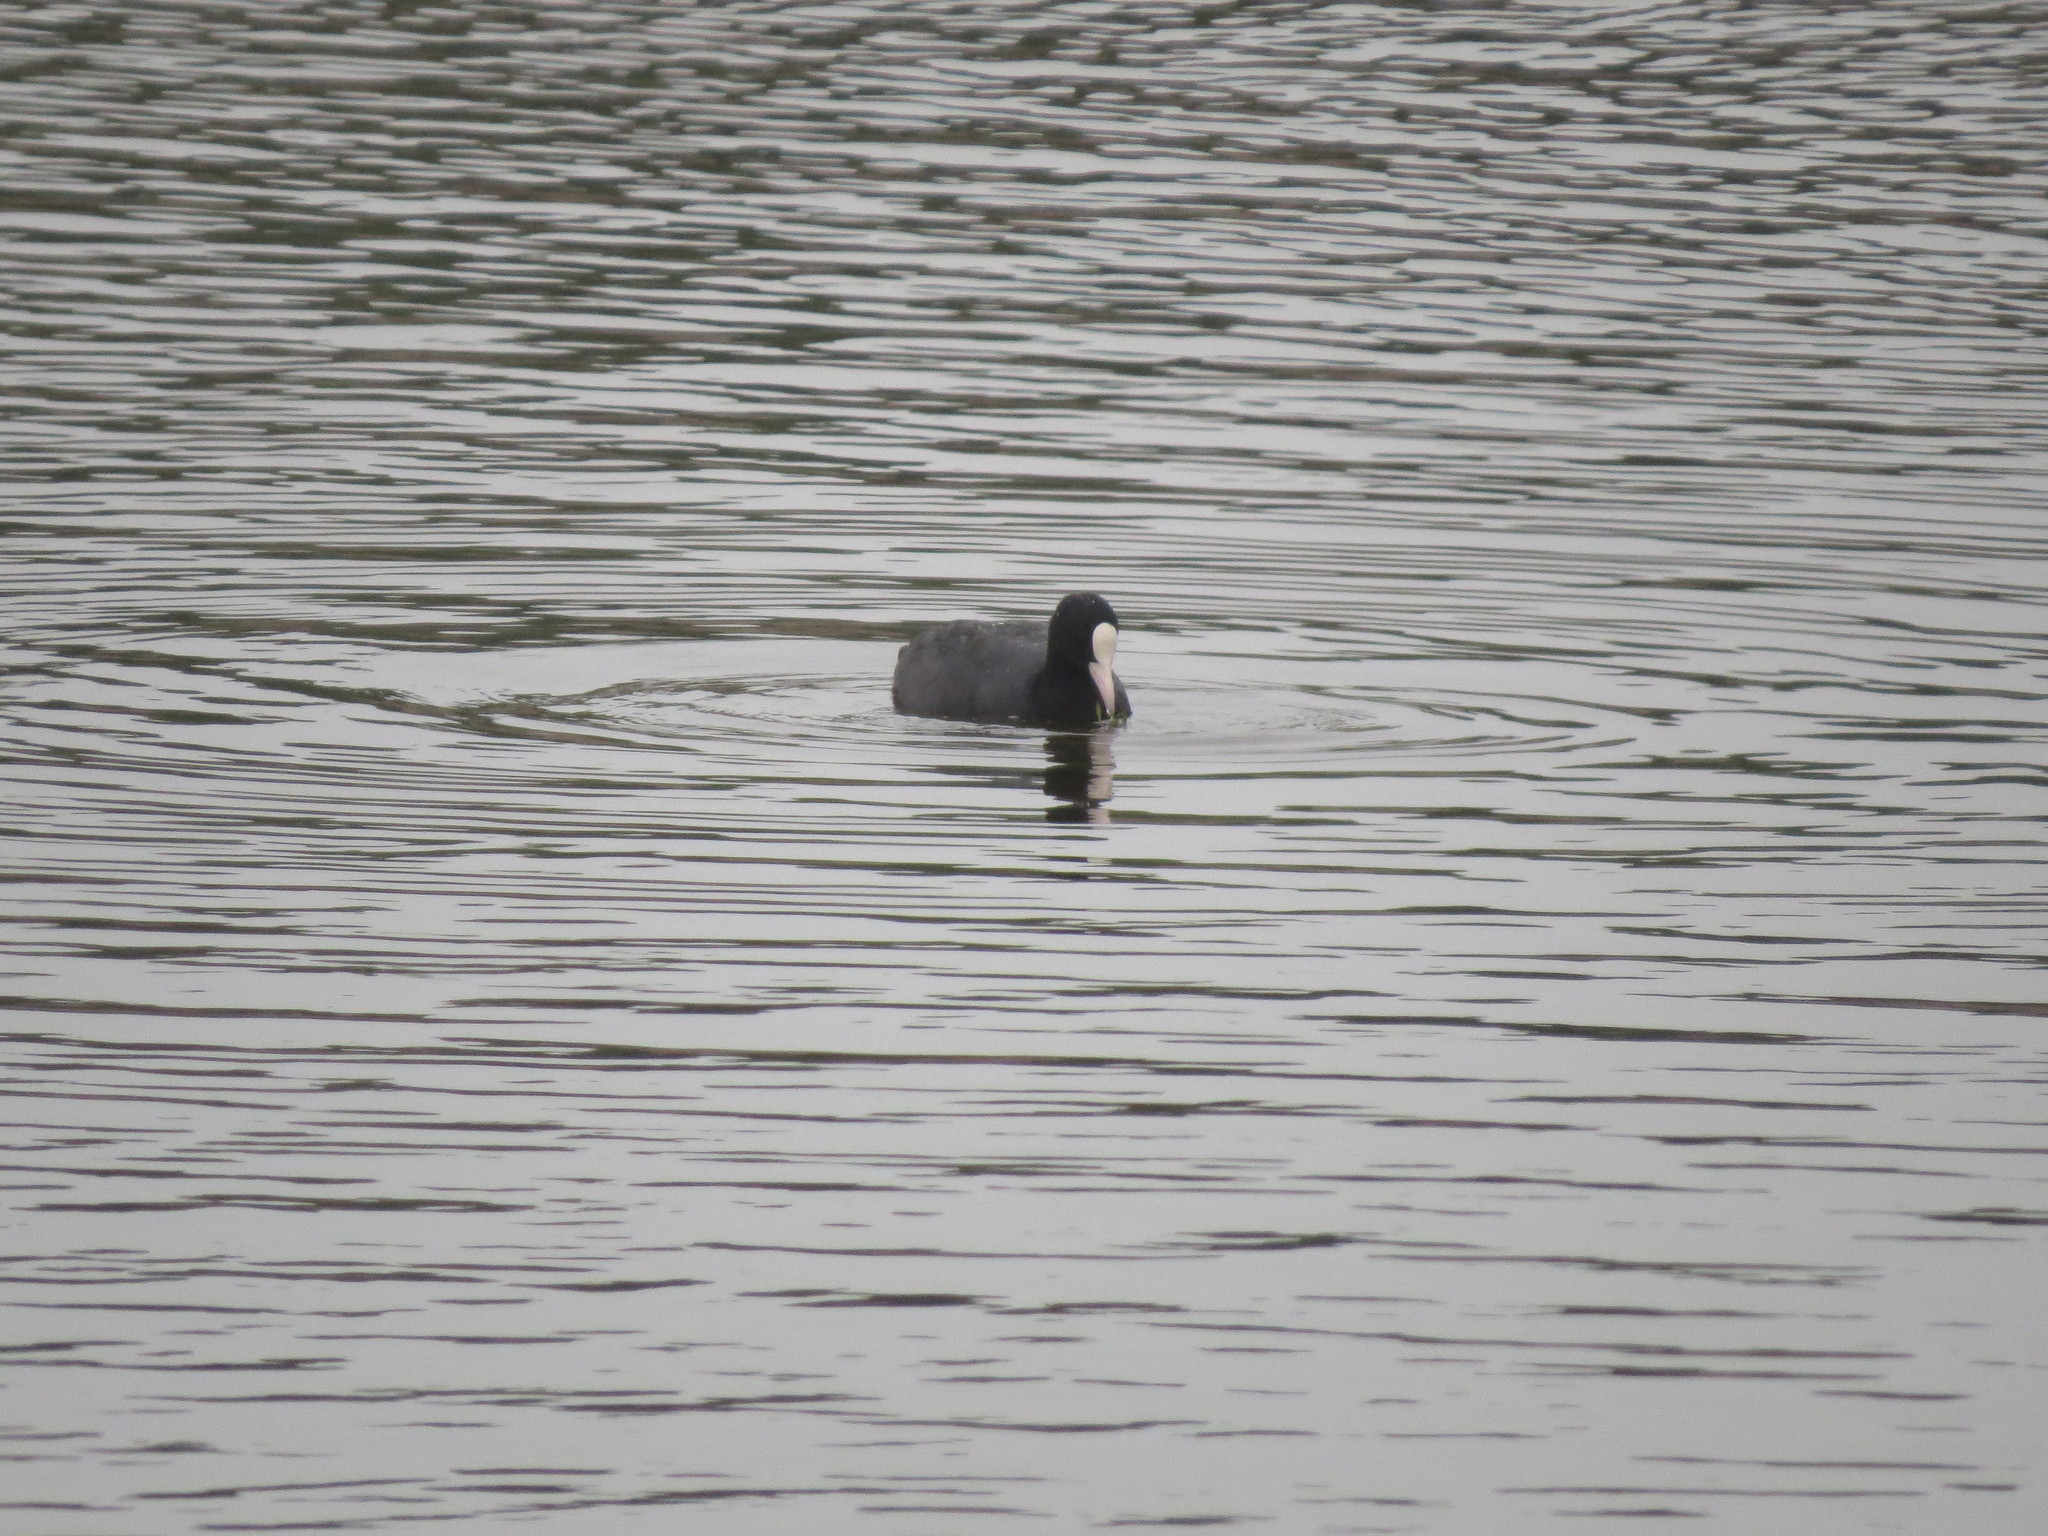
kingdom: Animalia
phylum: Chordata
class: Aves
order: Gruiformes
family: Rallidae
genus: Fulica
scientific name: Fulica atra
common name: Eurasian coot
